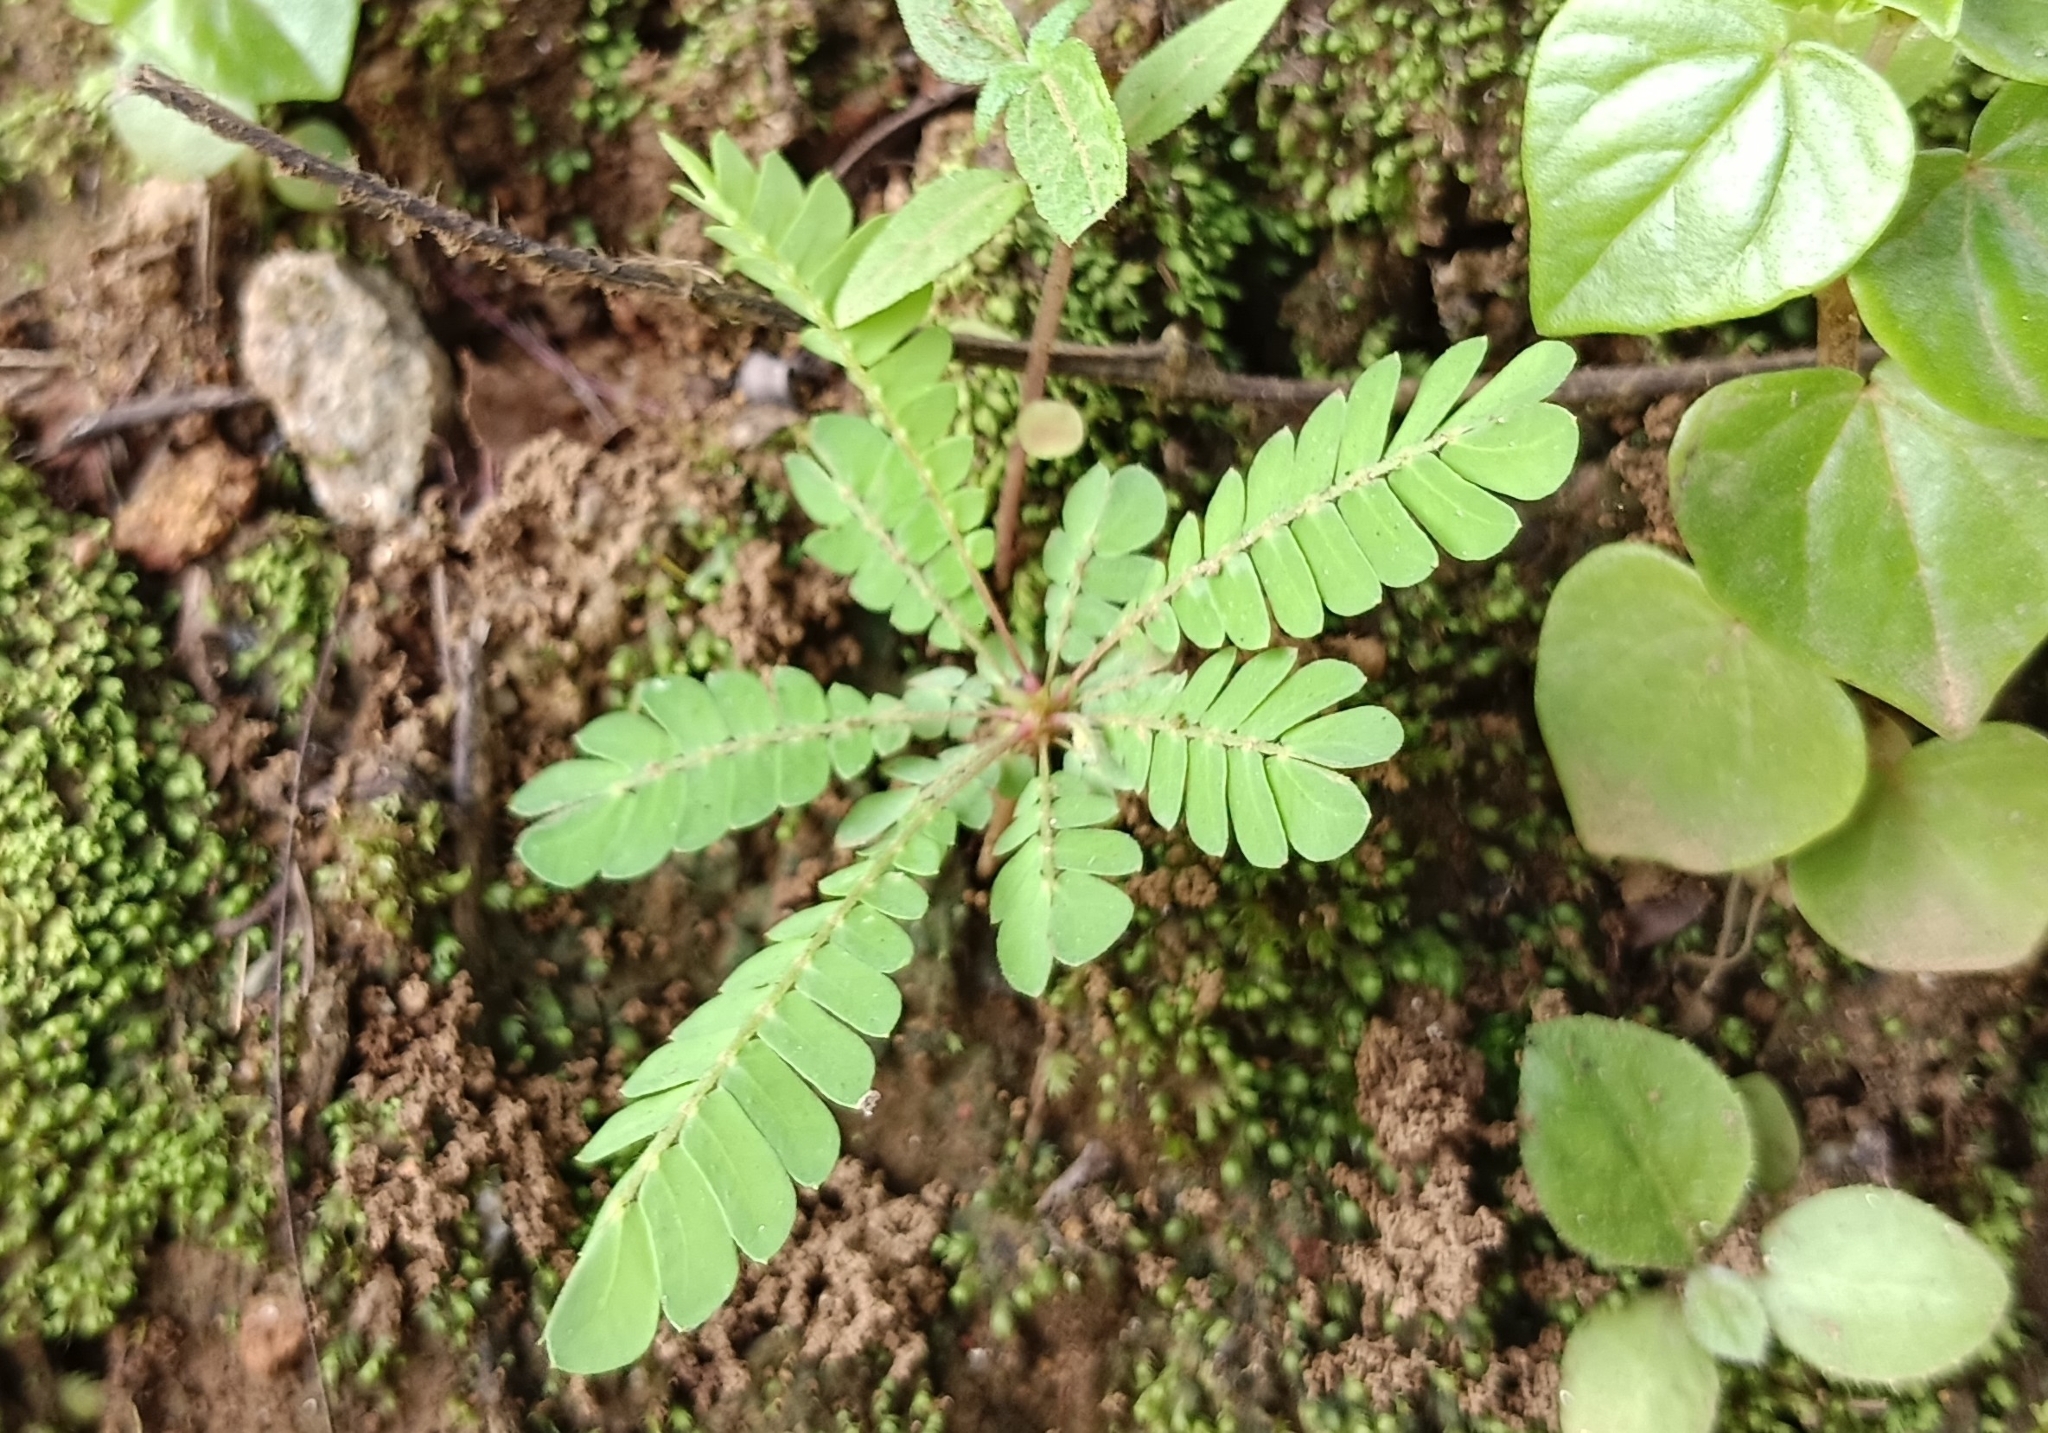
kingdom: Plantae
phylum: Tracheophyta
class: Magnoliopsida
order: Oxalidales
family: Oxalidaceae
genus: Biophytum
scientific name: Biophytum sensitivum
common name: Lifeplant
